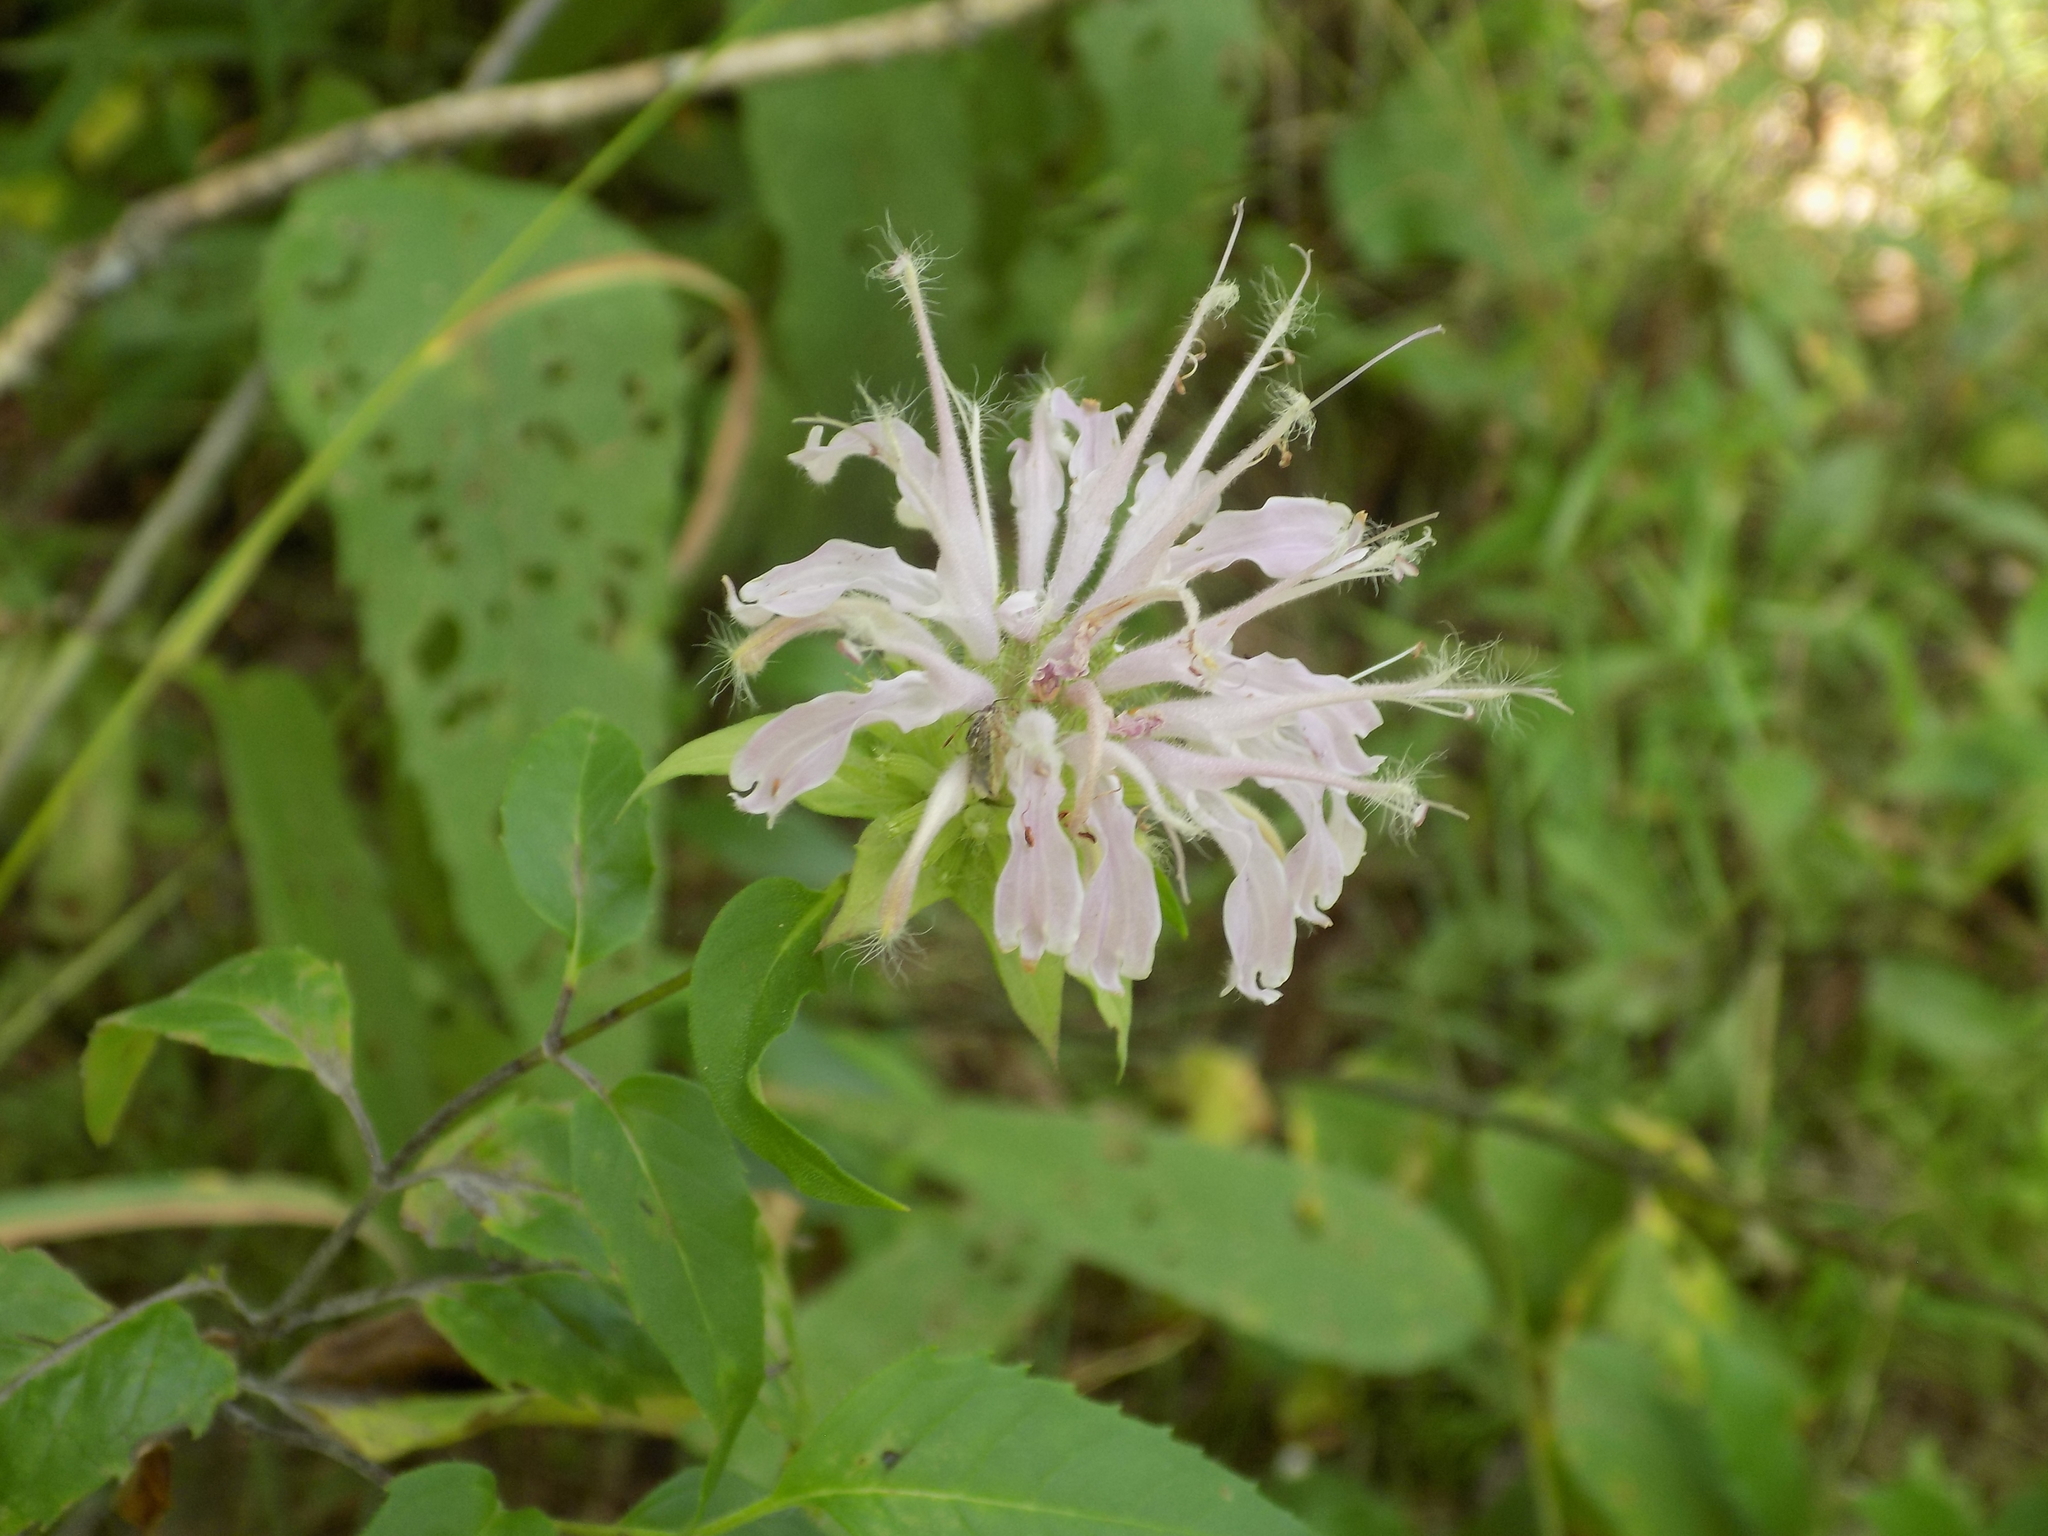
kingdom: Plantae
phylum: Tracheophyta
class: Magnoliopsida
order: Lamiales
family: Lamiaceae
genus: Monarda
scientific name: Monarda fistulosa
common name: Purple beebalm
